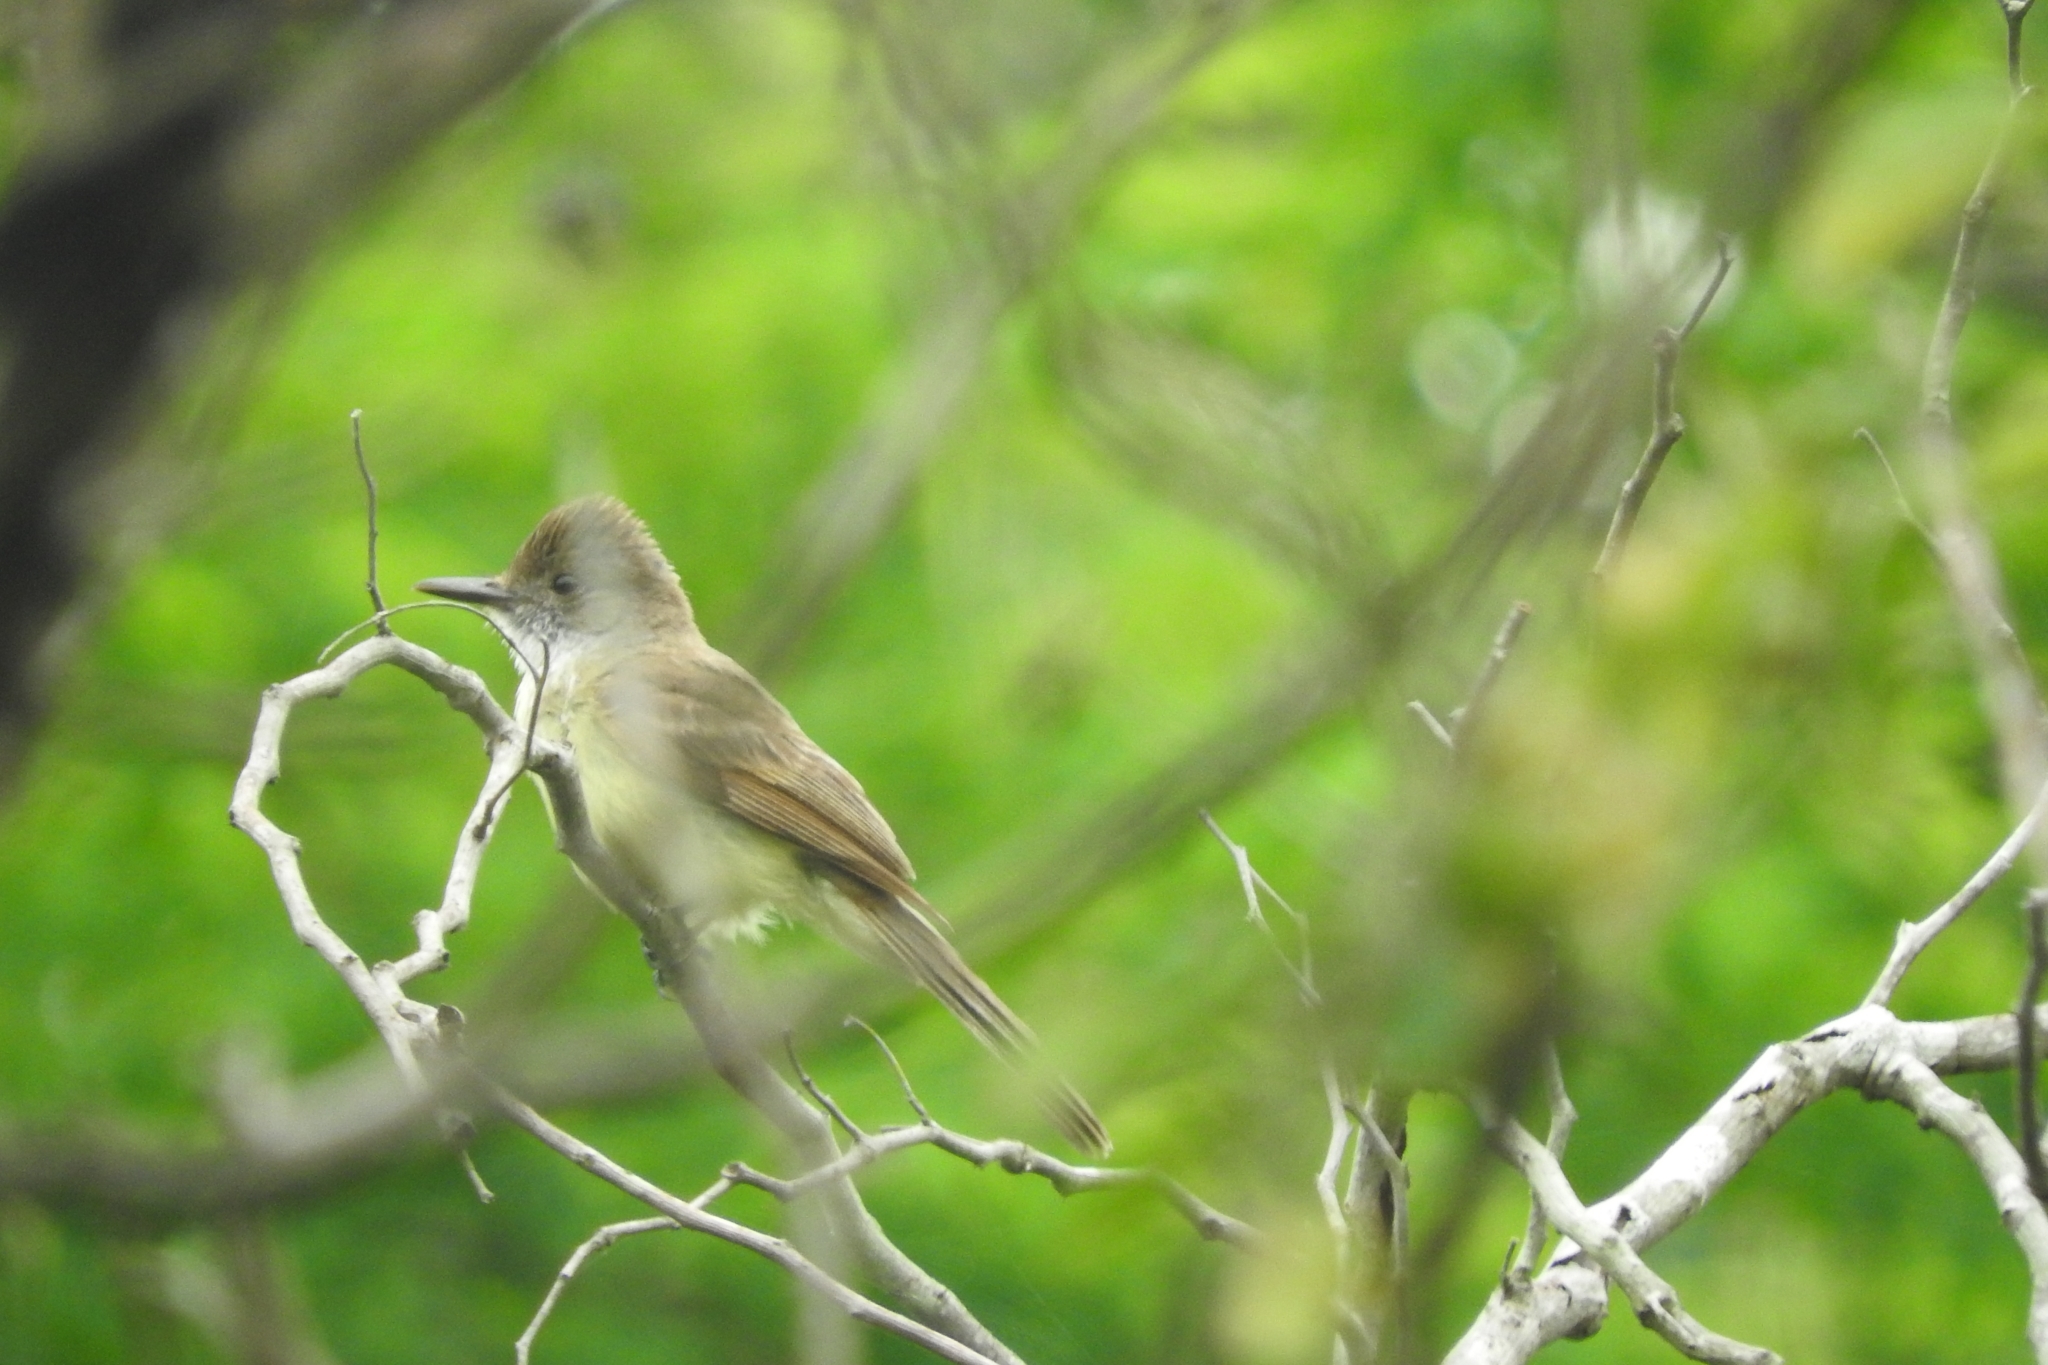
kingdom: Animalia
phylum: Chordata
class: Aves
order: Passeriformes
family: Tyrannidae
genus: Myiarchus
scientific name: Myiarchus tyrannulus
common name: Brown-crested flycatcher
